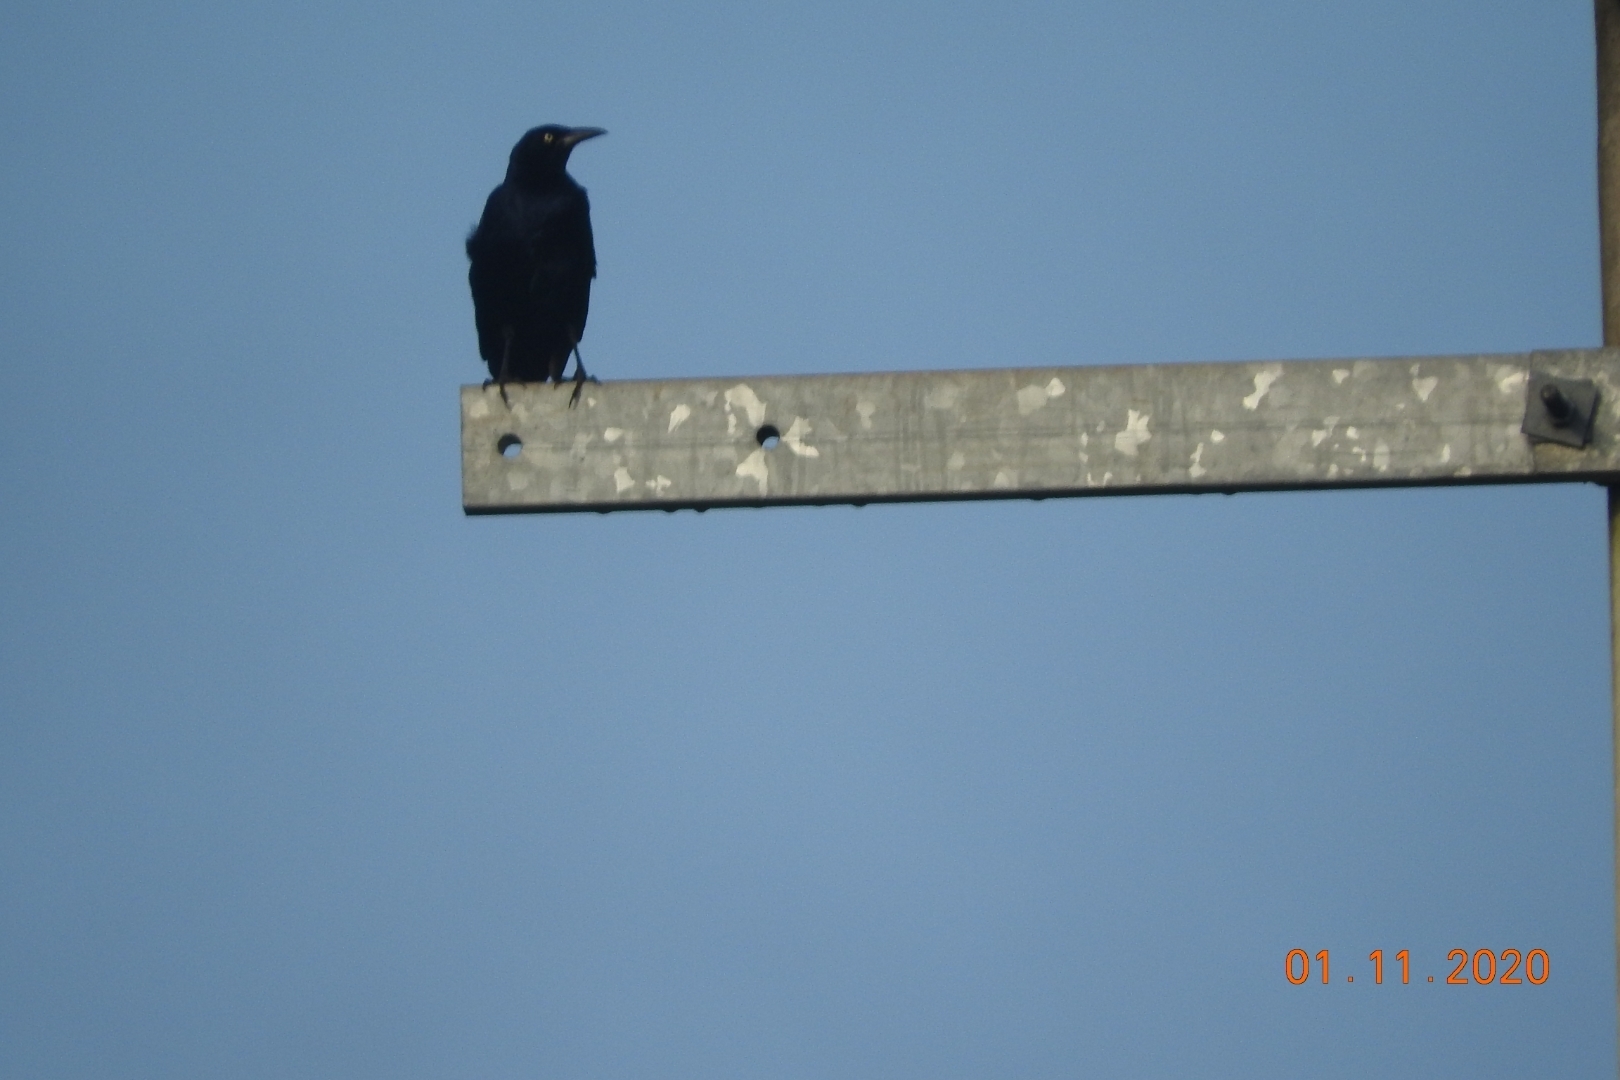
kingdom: Animalia
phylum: Chordata
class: Aves
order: Passeriformes
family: Icteridae
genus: Quiscalus
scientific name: Quiscalus mexicanus
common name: Great-tailed grackle
